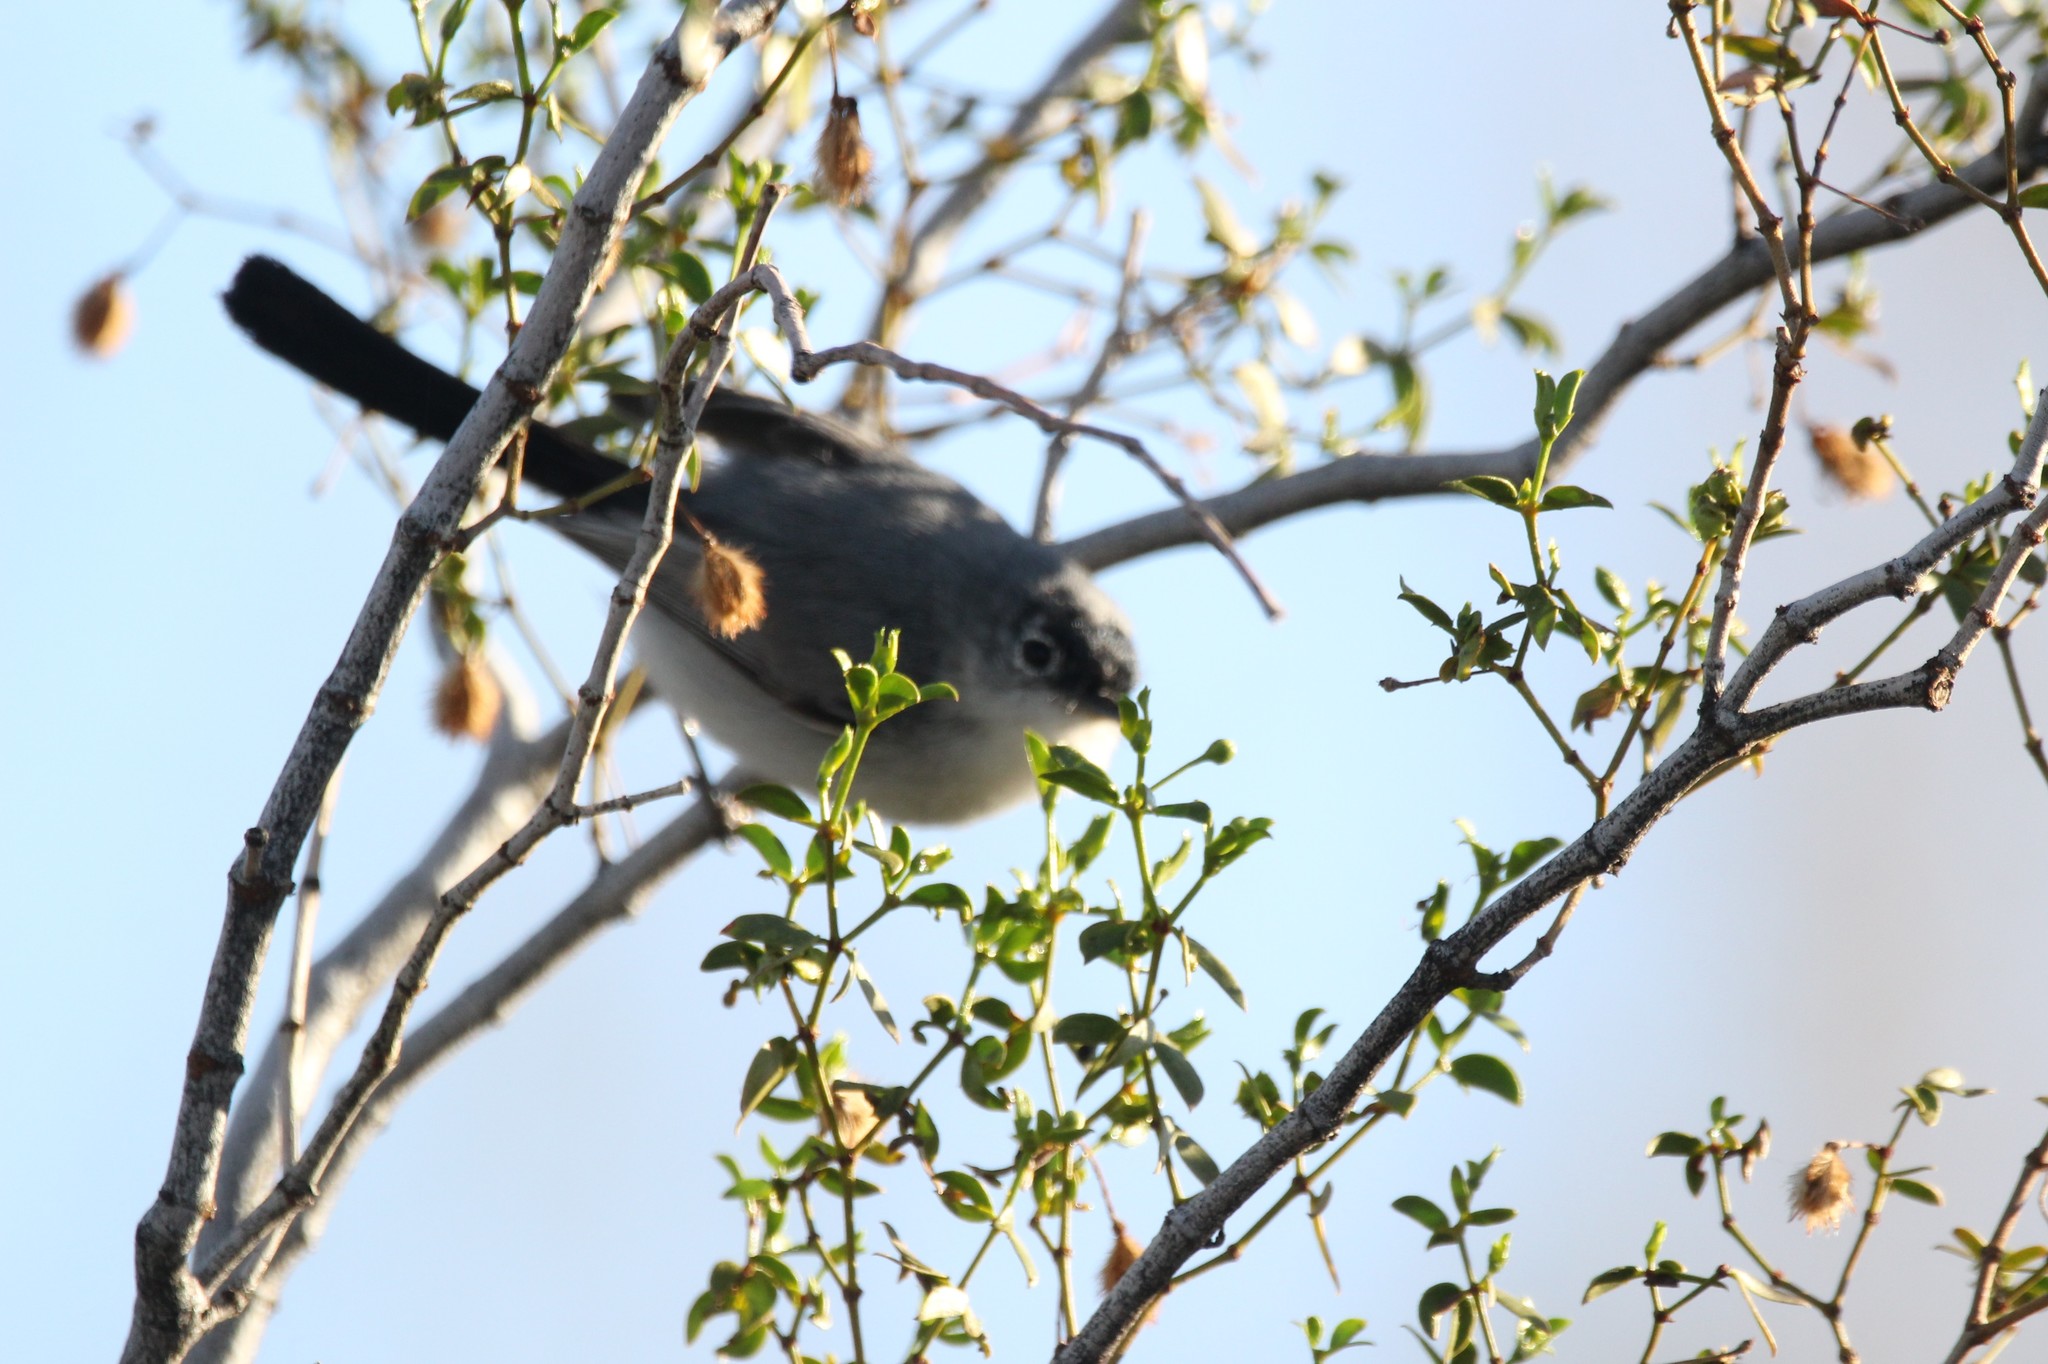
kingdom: Animalia
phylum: Chordata
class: Aves
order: Passeriformes
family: Polioptilidae
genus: Polioptila
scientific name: Polioptila melanura
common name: Black-tailed gnatcatcher
